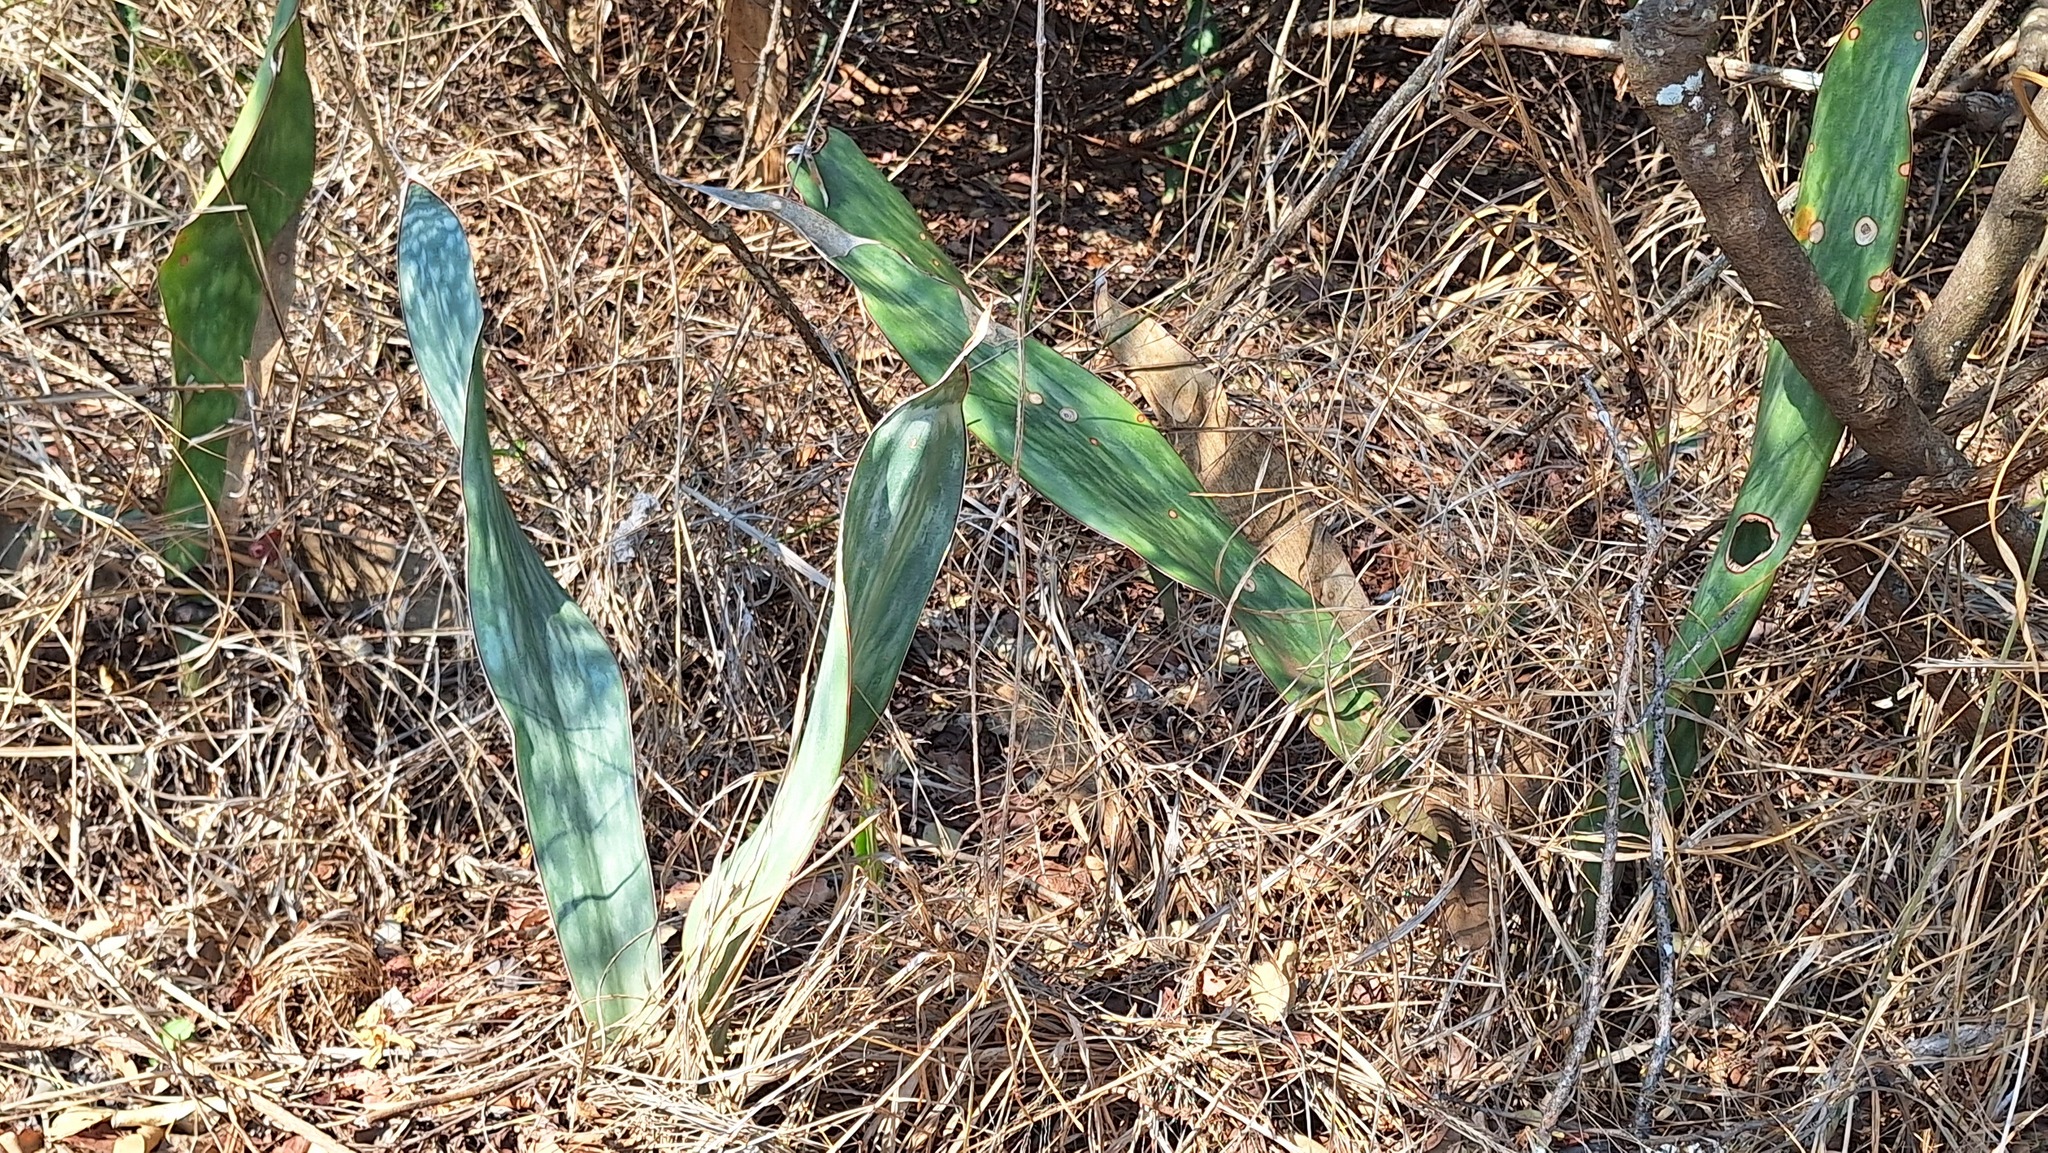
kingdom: Plantae
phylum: Tracheophyta
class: Liliopsida
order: Asparagales
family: Asparagaceae
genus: Dracaena
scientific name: Dracaena hyacinthoides
